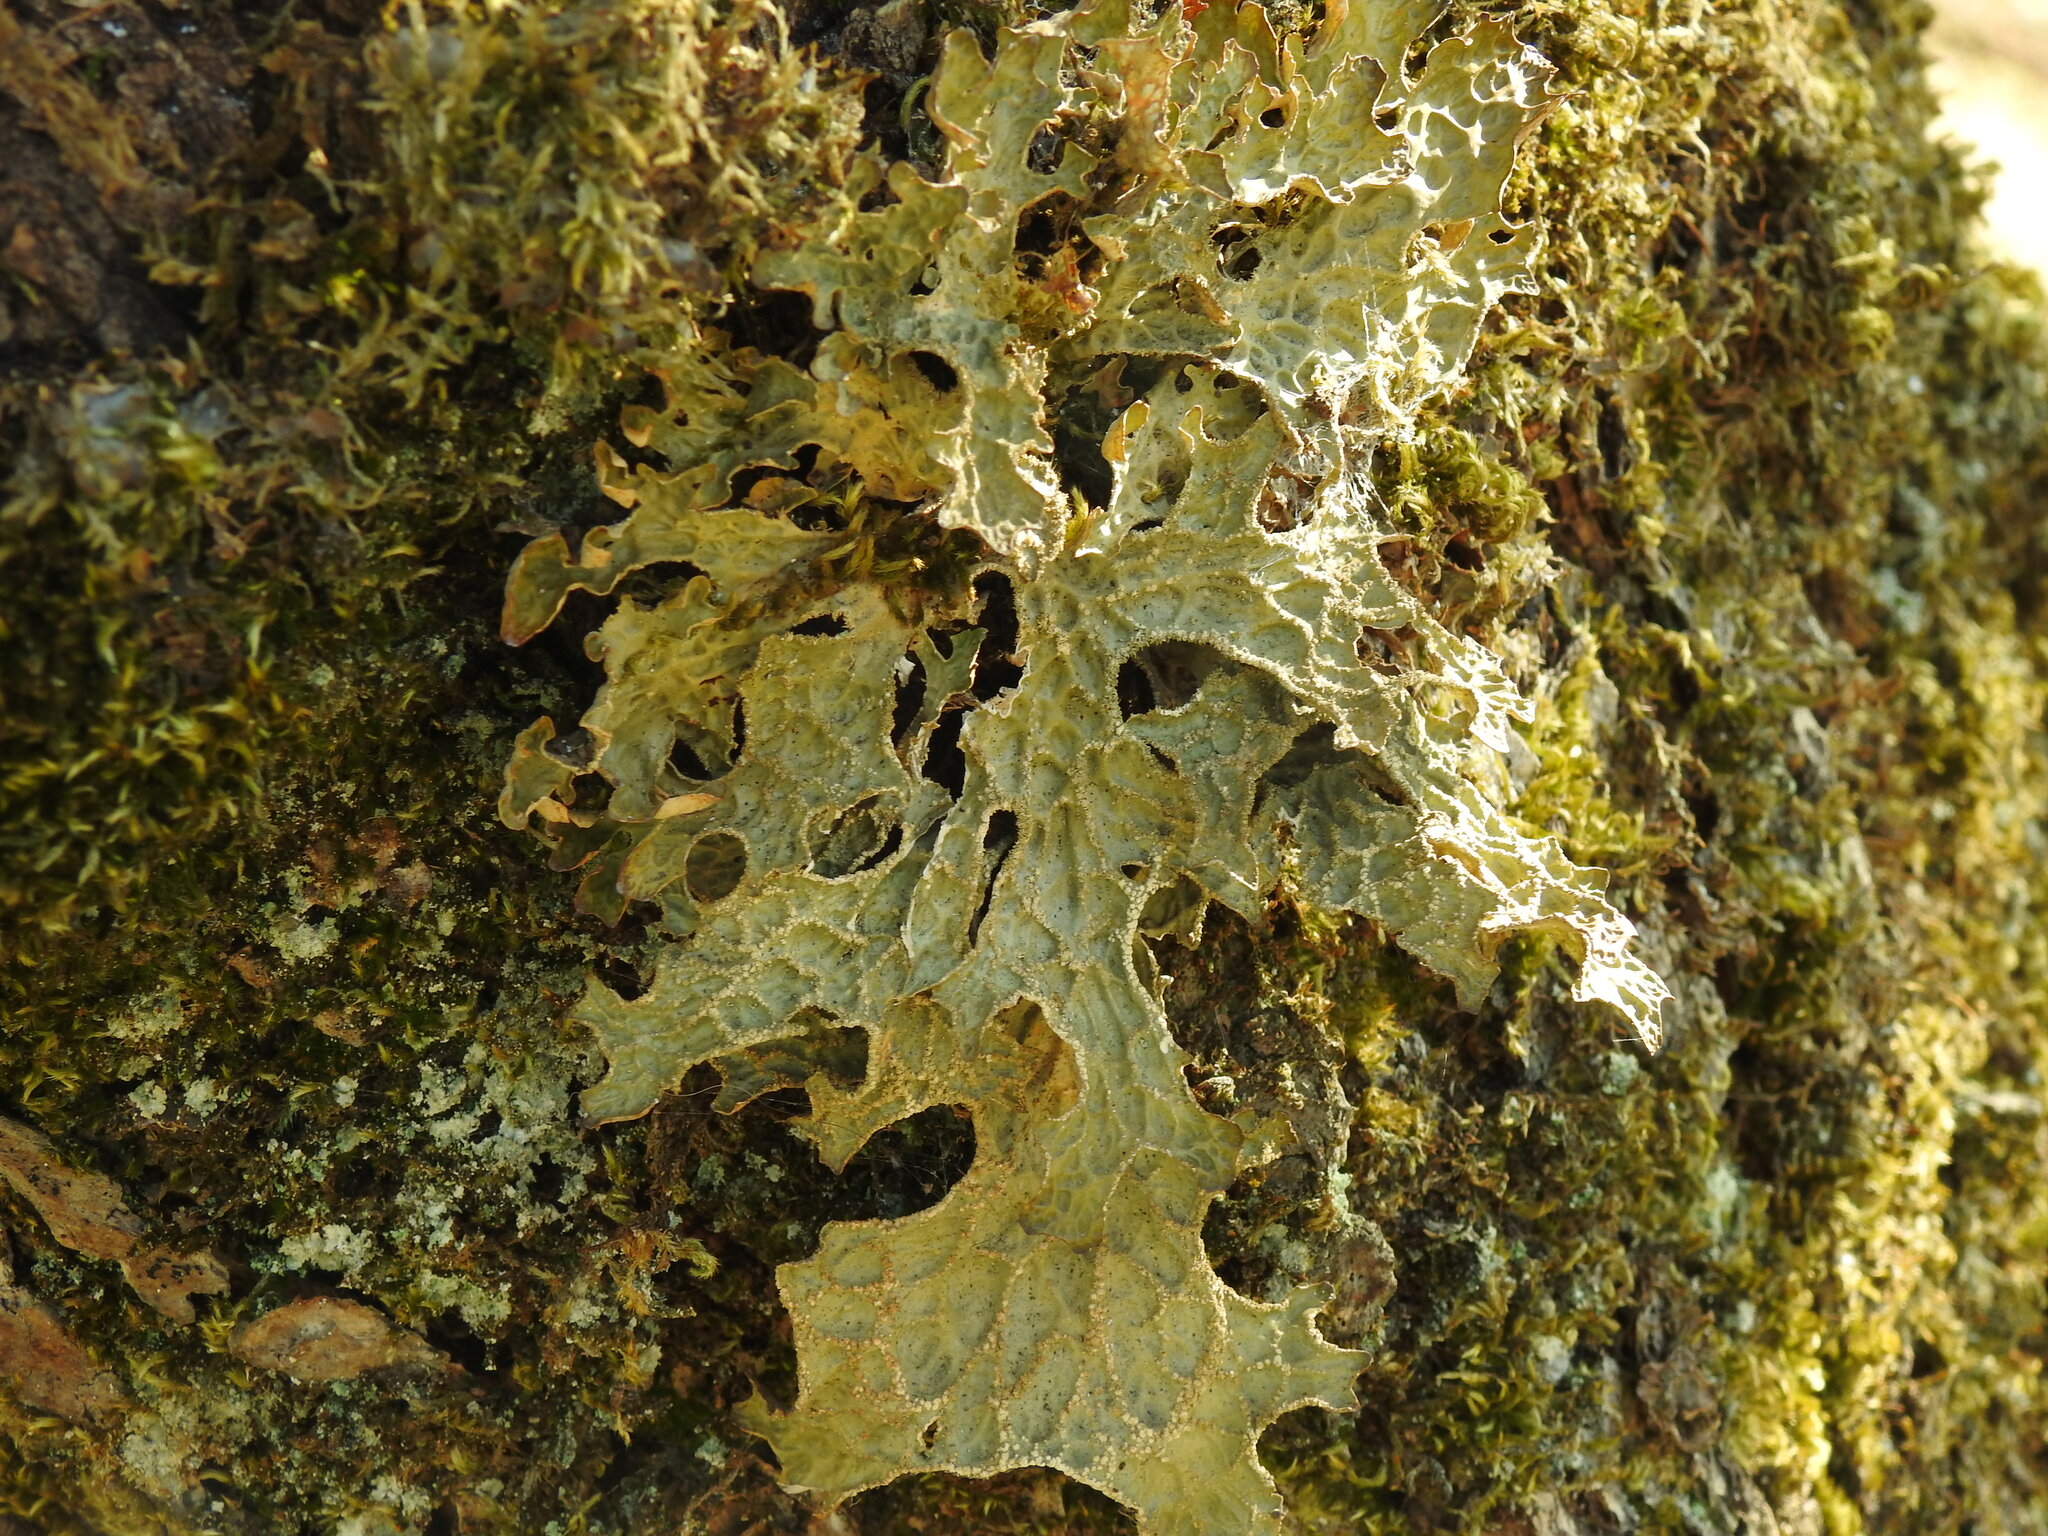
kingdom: Fungi
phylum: Ascomycota
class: Lecanoromycetes
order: Peltigerales
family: Lobariaceae
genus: Lobaria
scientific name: Lobaria pulmonaria
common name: Lungwort
